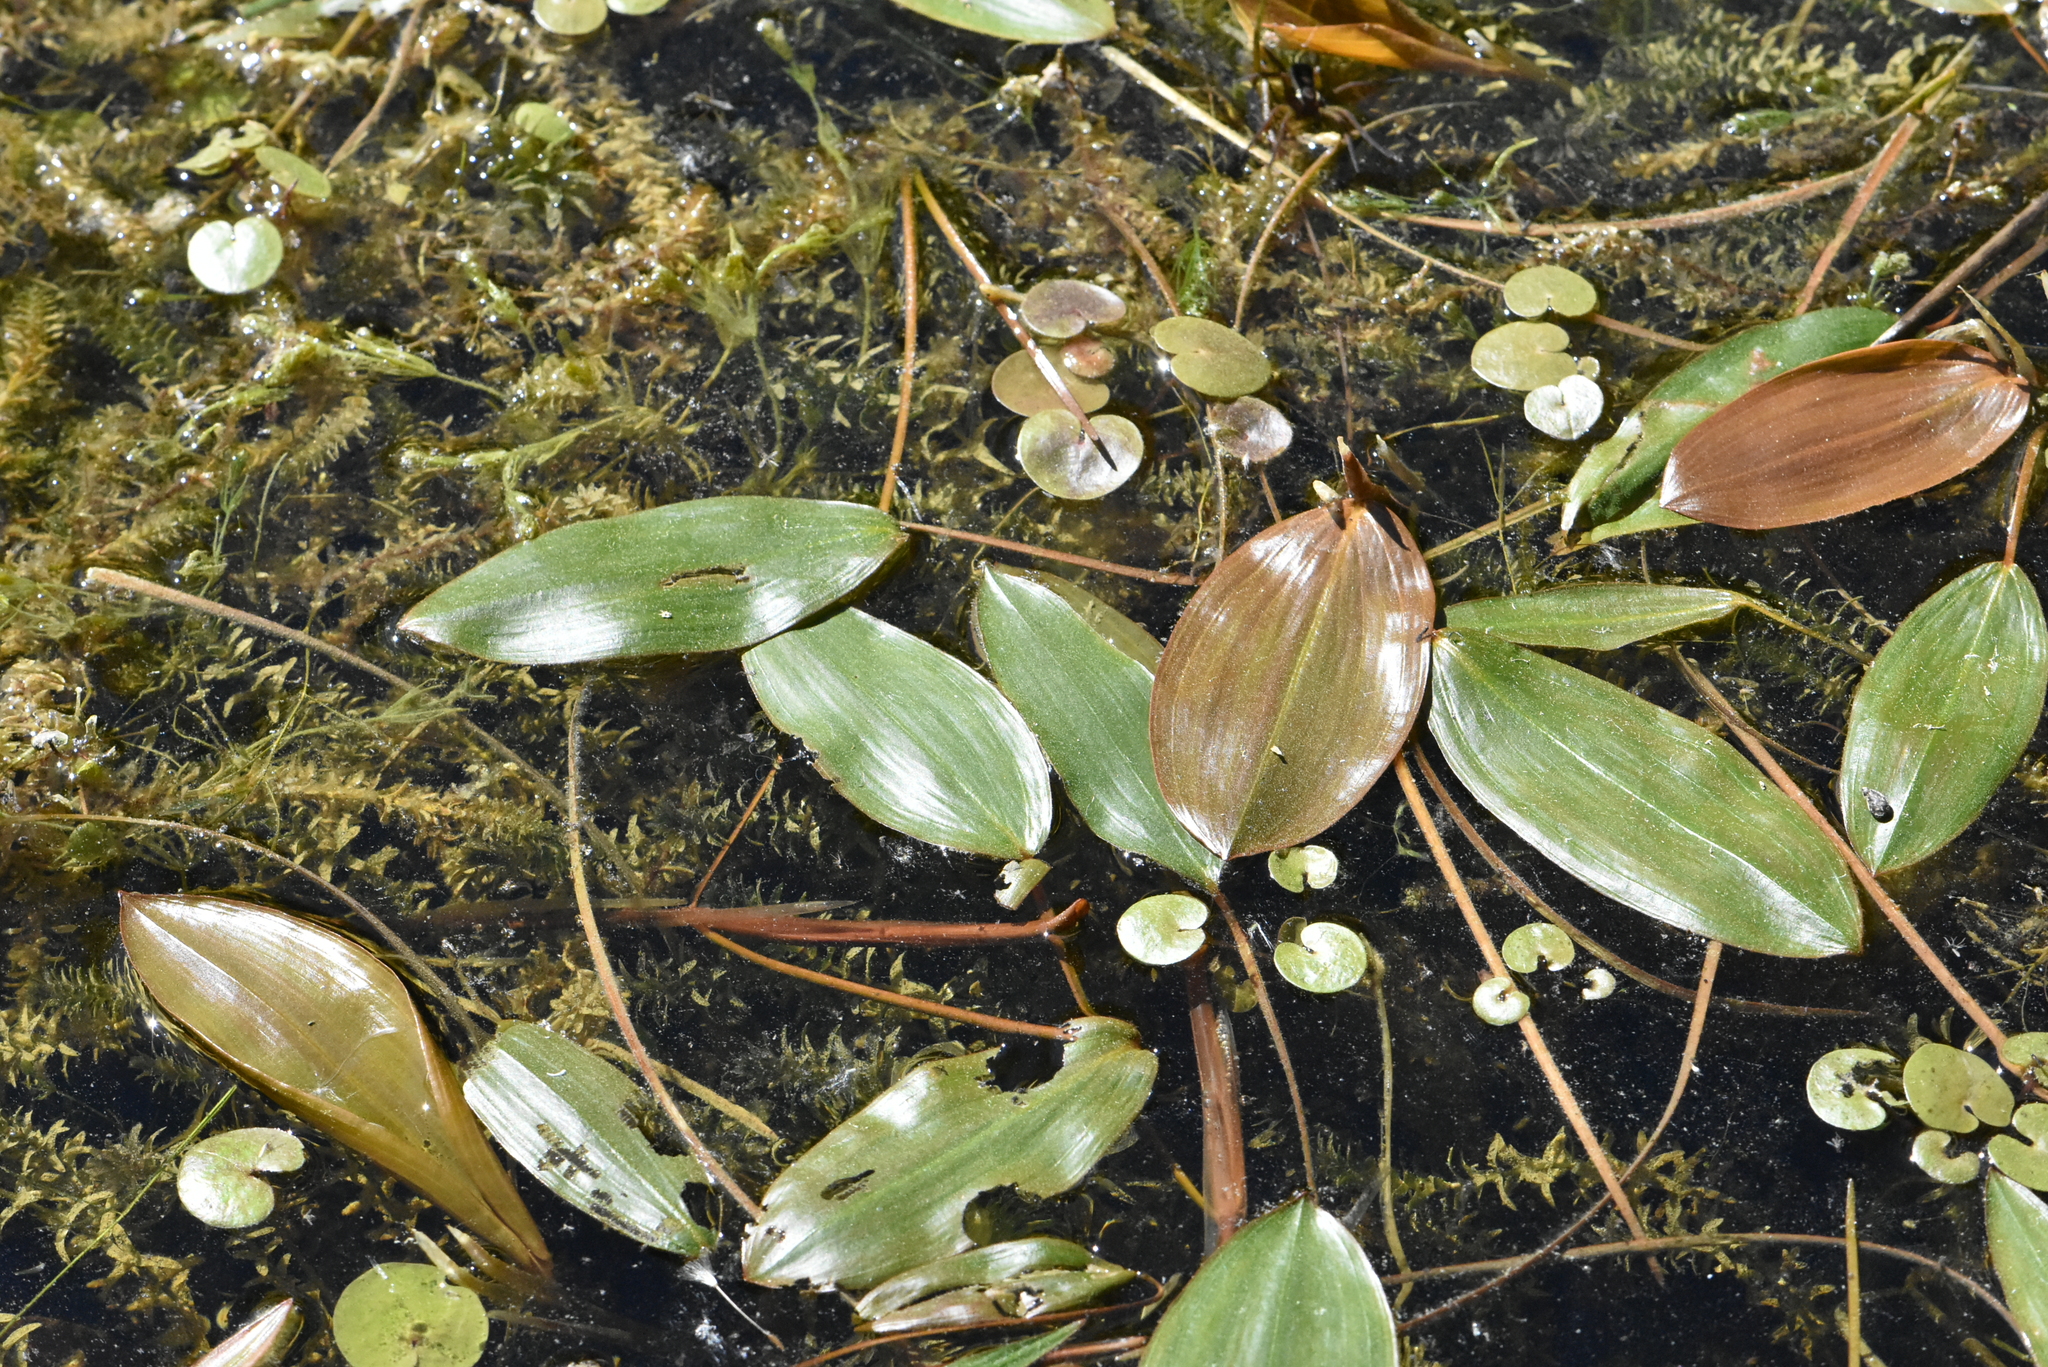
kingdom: Plantae
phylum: Tracheophyta
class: Liliopsida
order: Alismatales
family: Potamogetonaceae
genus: Potamogeton
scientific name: Potamogeton natans
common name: Broad-leaved pondweed
